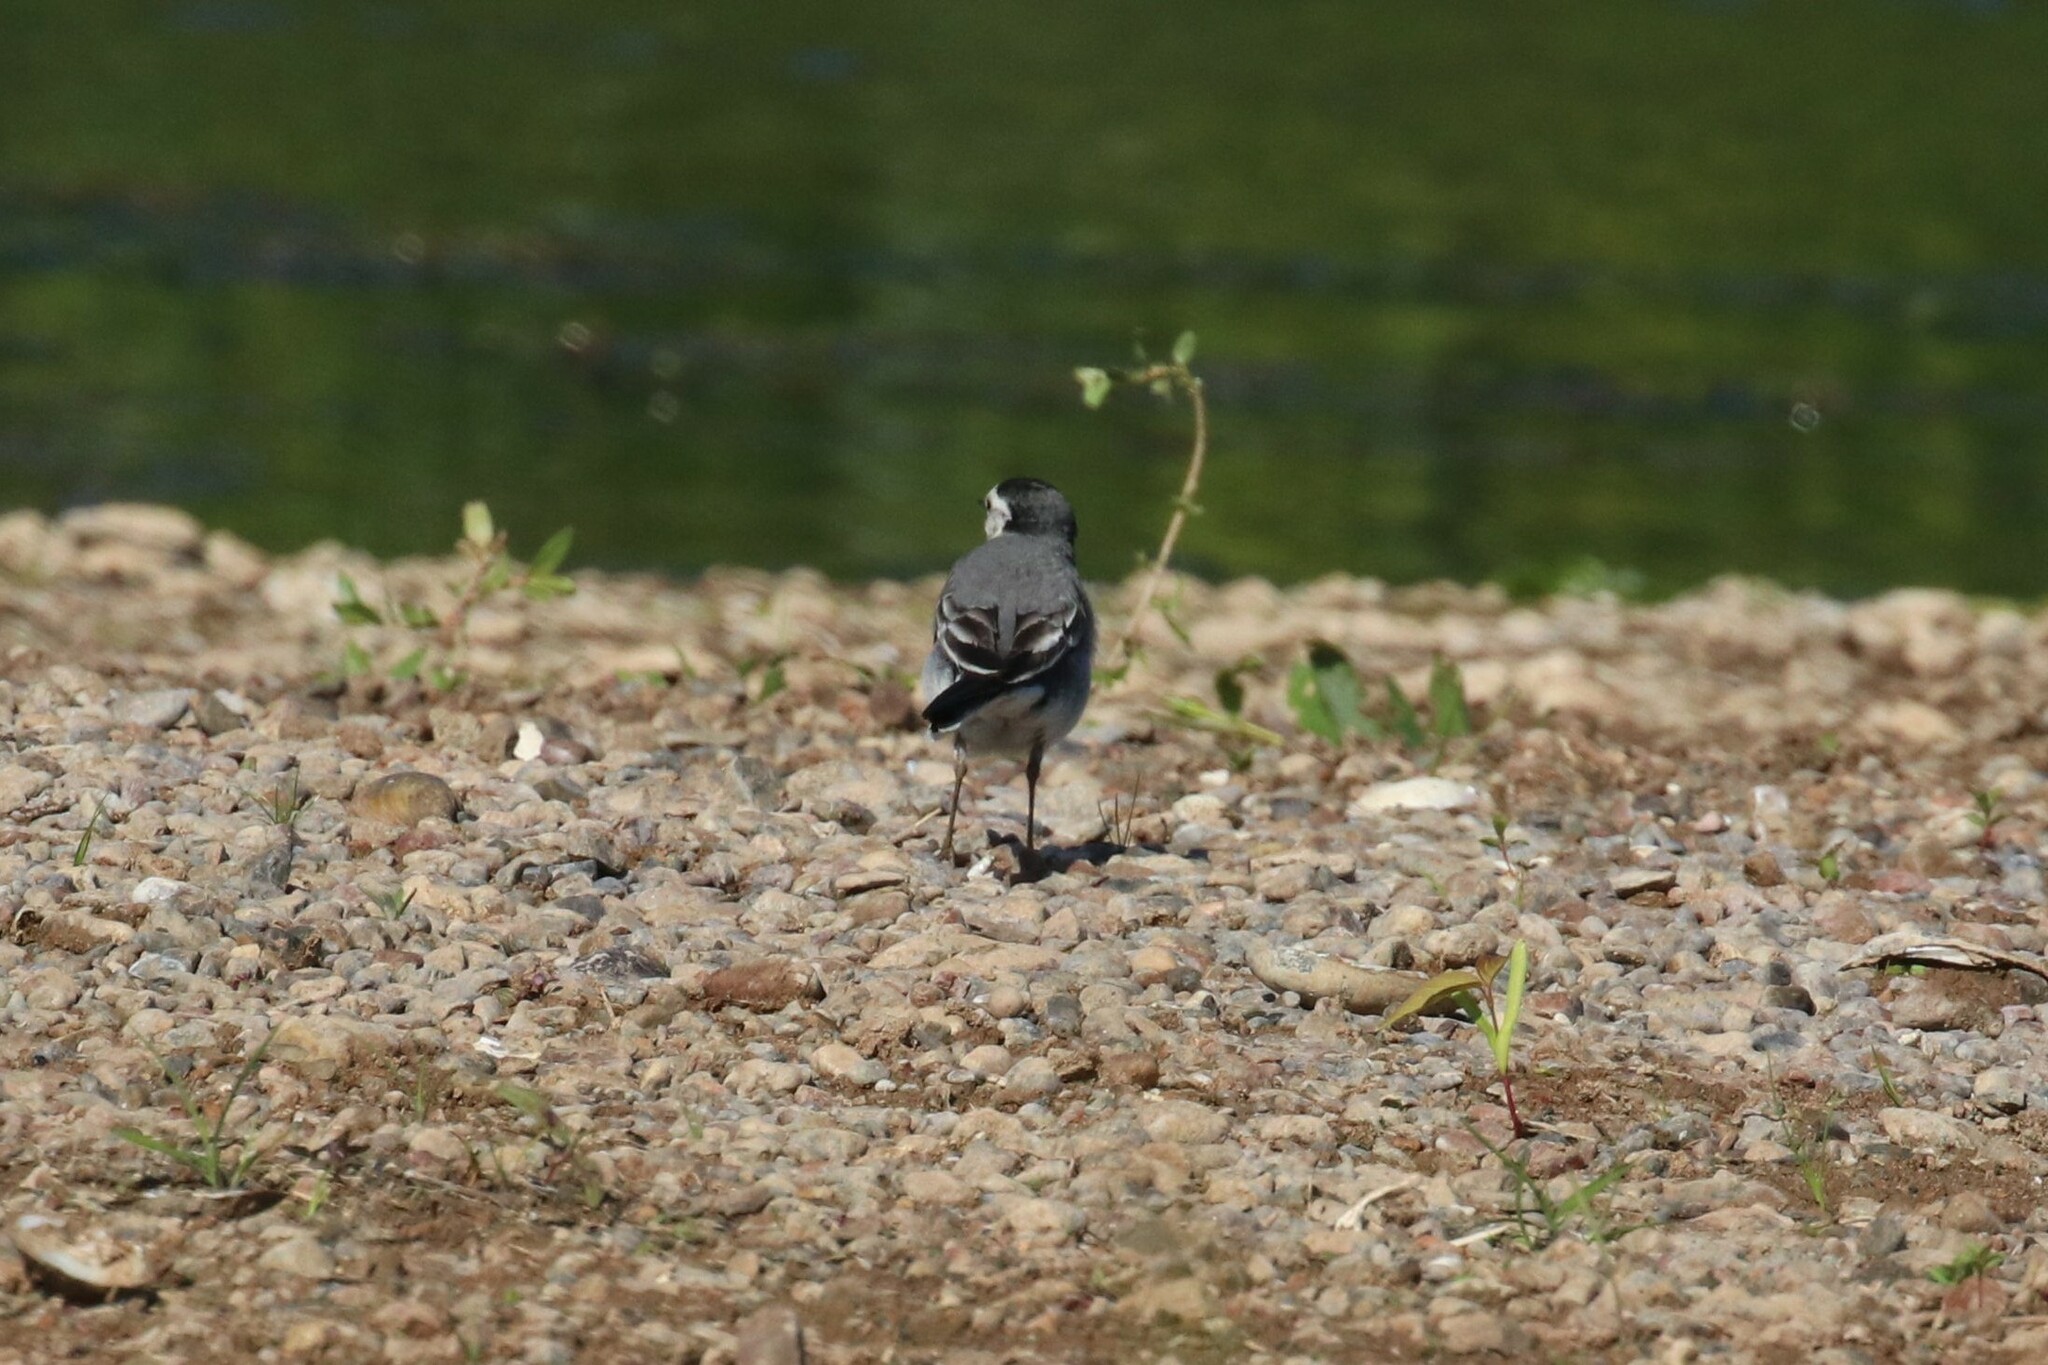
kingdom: Animalia
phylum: Chordata
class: Aves
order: Passeriformes
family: Motacillidae
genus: Motacilla
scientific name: Motacilla alba
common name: White wagtail
